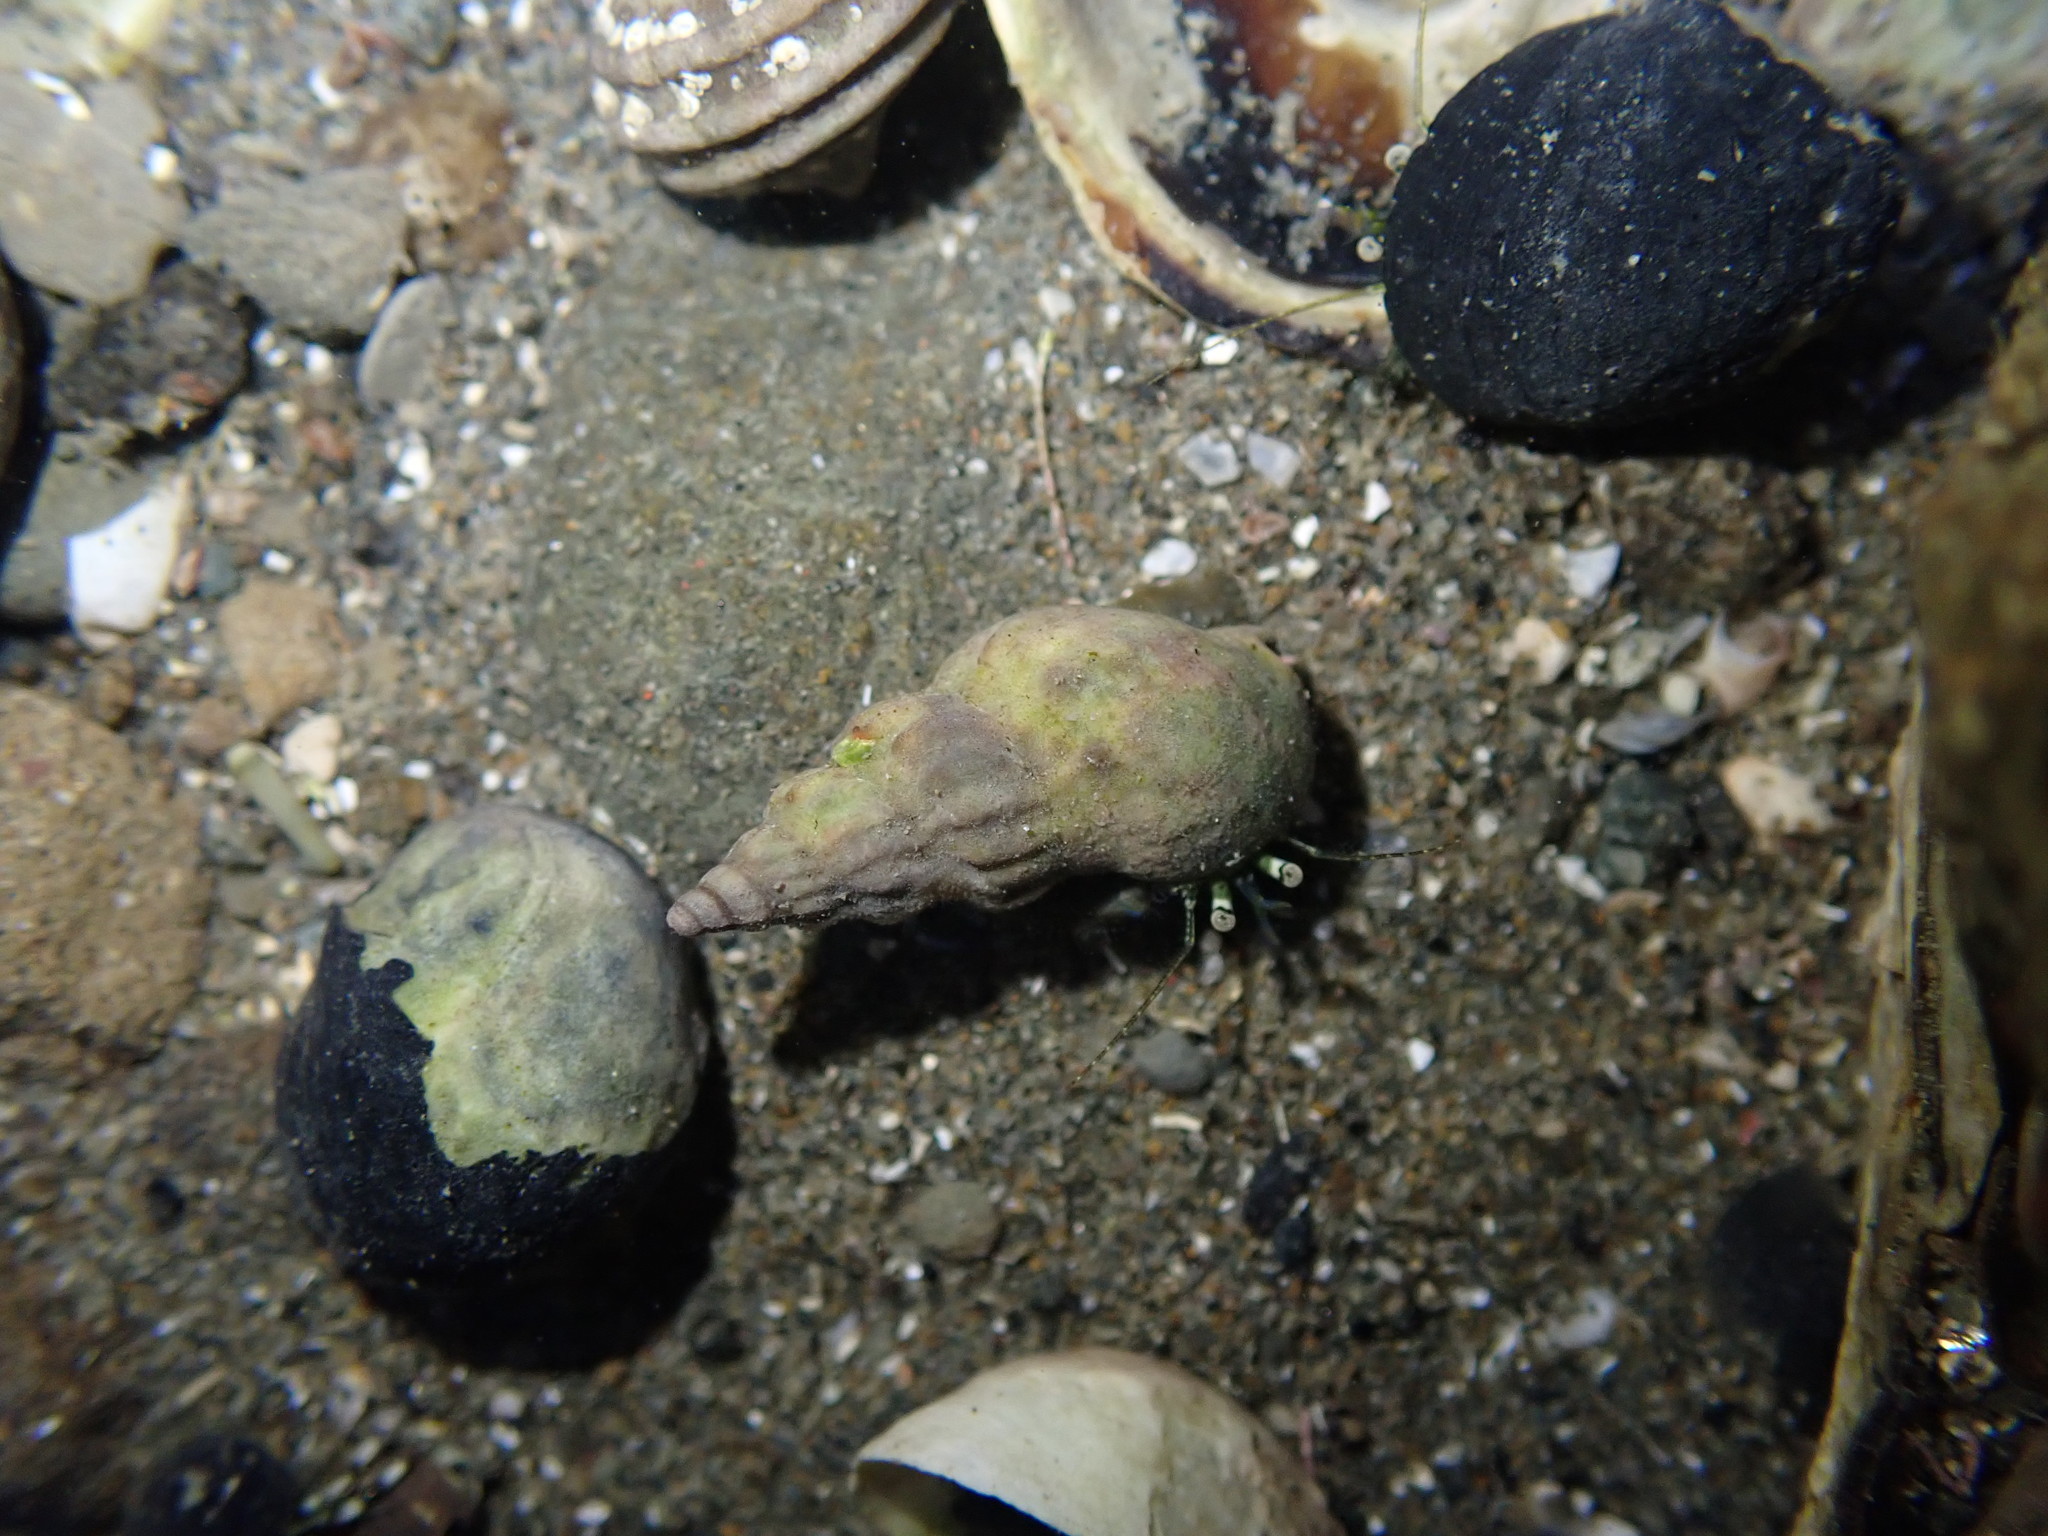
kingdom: Animalia
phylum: Arthropoda
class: Malacostraca
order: Decapoda
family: Paguridae
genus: Pagurus
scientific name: Pagurus novizealandiae
